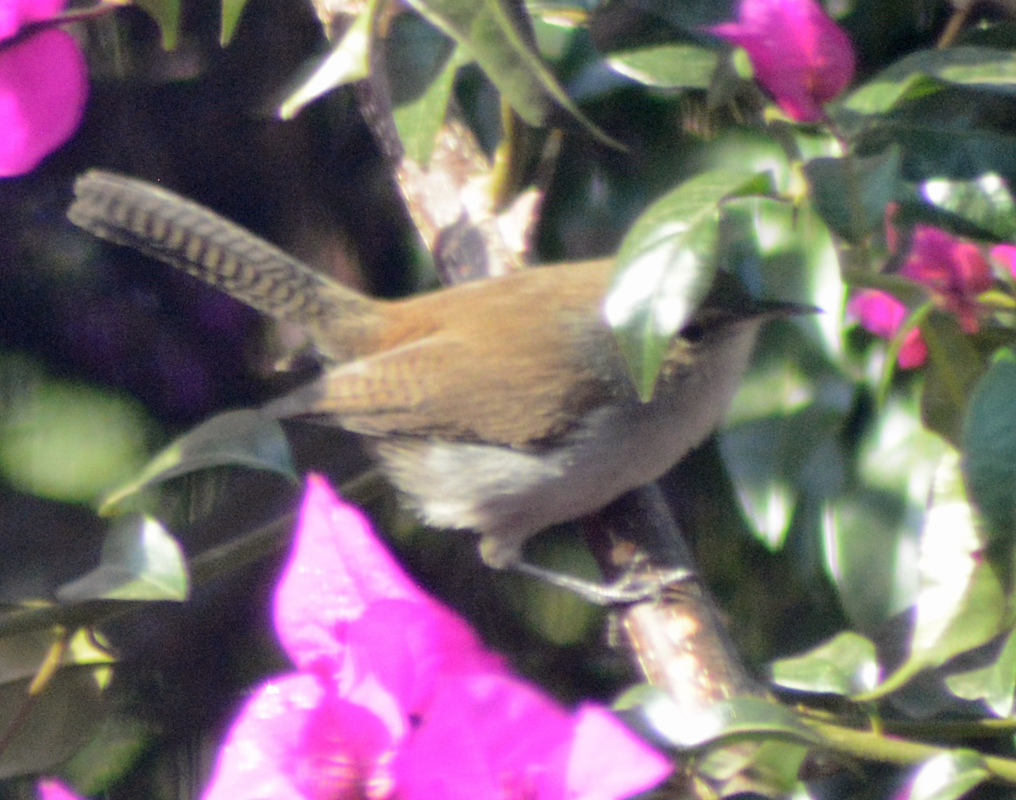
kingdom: Animalia
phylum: Chordata
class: Aves
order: Passeriformes
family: Troglodytidae
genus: Thryomanes
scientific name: Thryomanes bewickii
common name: Bewick's wren
